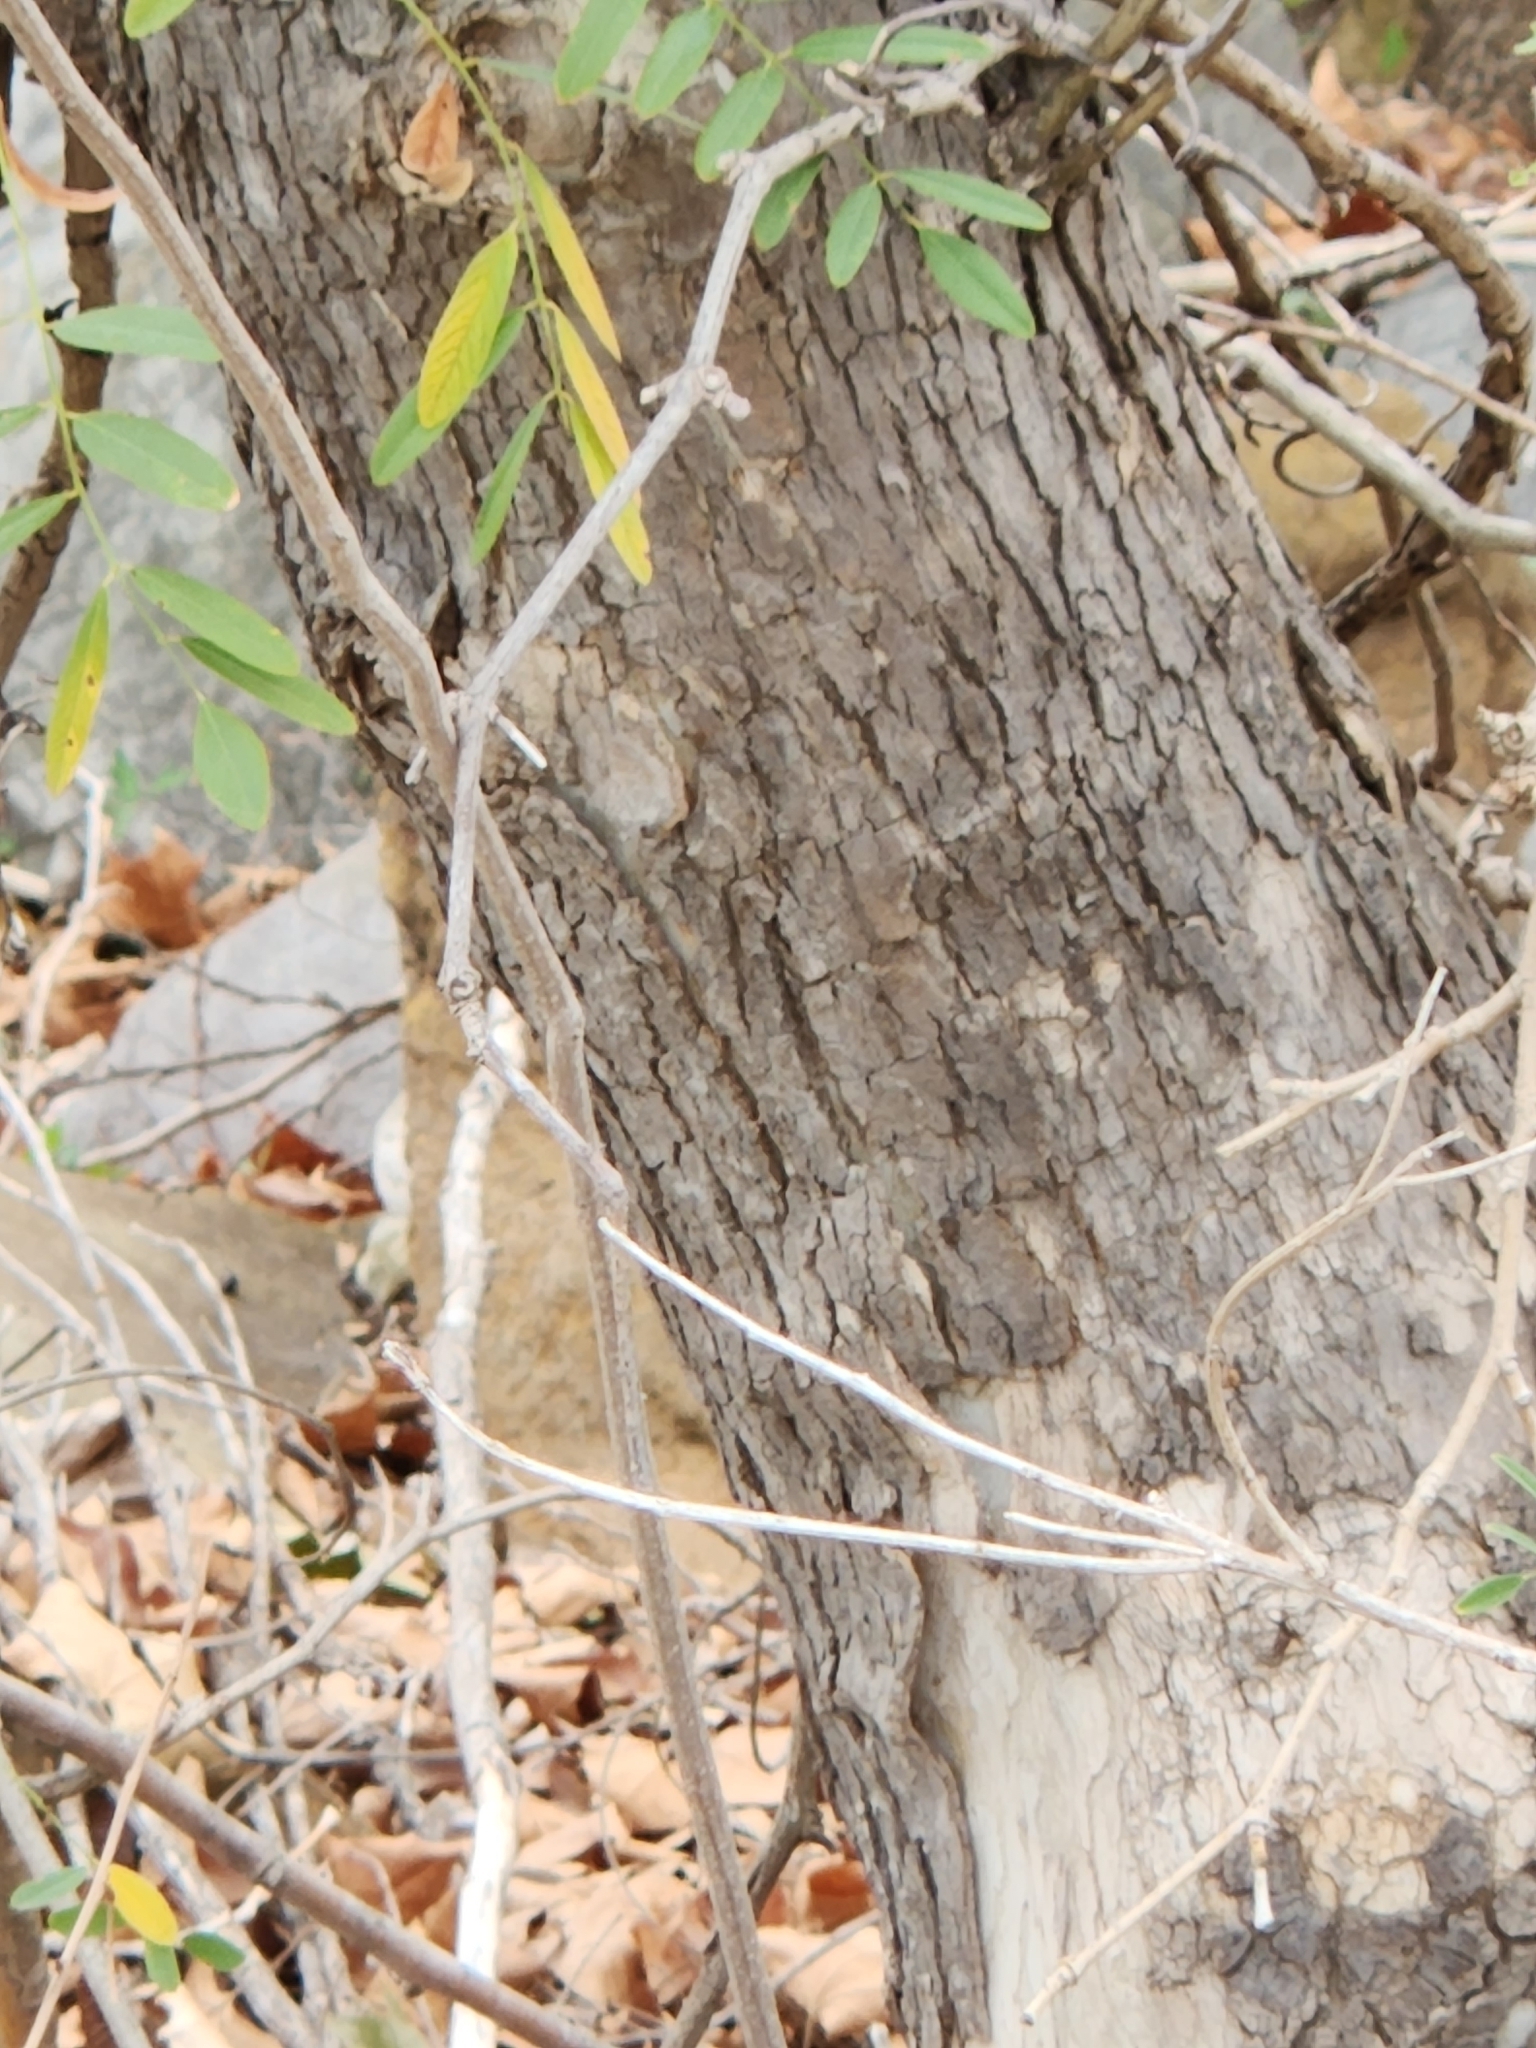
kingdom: Plantae
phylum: Tracheophyta
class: Magnoliopsida
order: Proteales
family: Platanaceae
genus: Platanus
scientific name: Platanus occidentalis
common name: American sycamore
